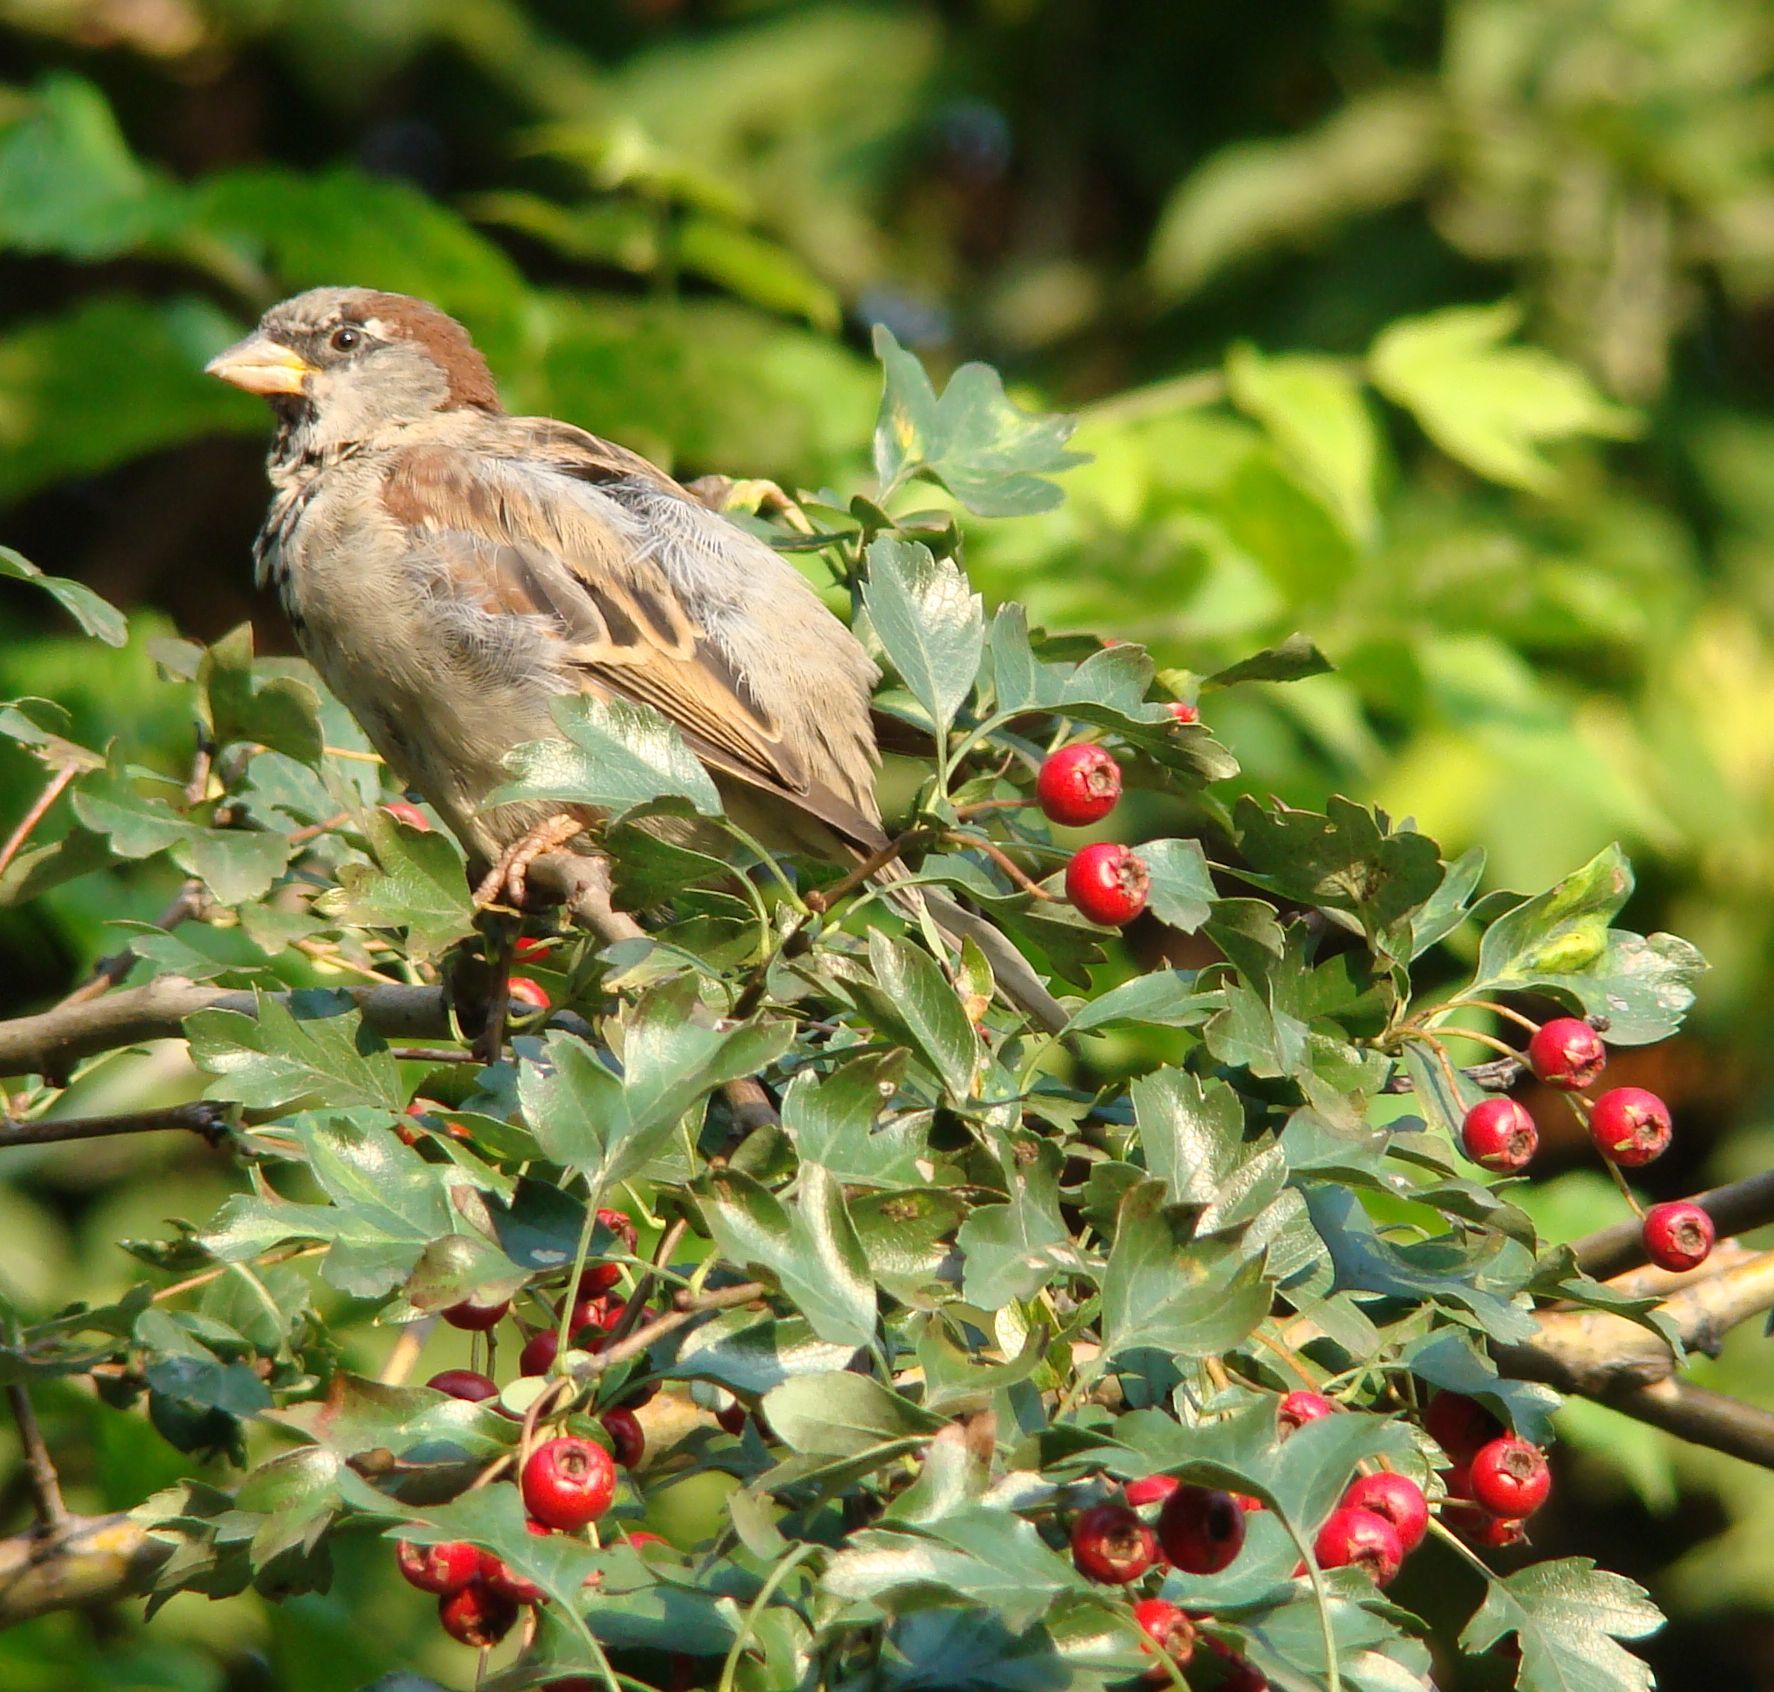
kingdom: Animalia
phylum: Chordata
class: Aves
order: Passeriformes
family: Passeridae
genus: Passer
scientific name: Passer domesticus
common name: House sparrow
